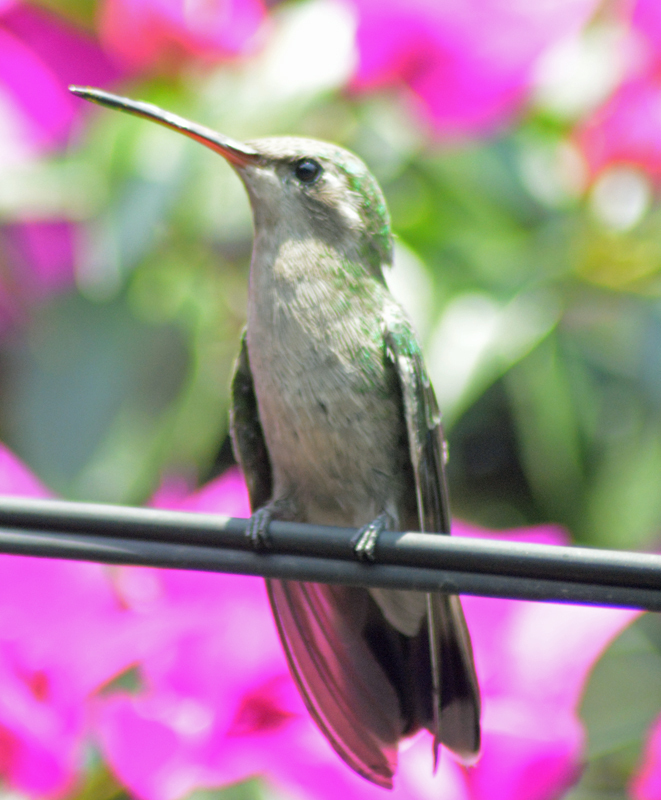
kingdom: Animalia
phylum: Chordata
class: Aves
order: Apodiformes
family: Trochilidae
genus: Cynanthus
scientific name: Cynanthus latirostris
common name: Broad-billed hummingbird
